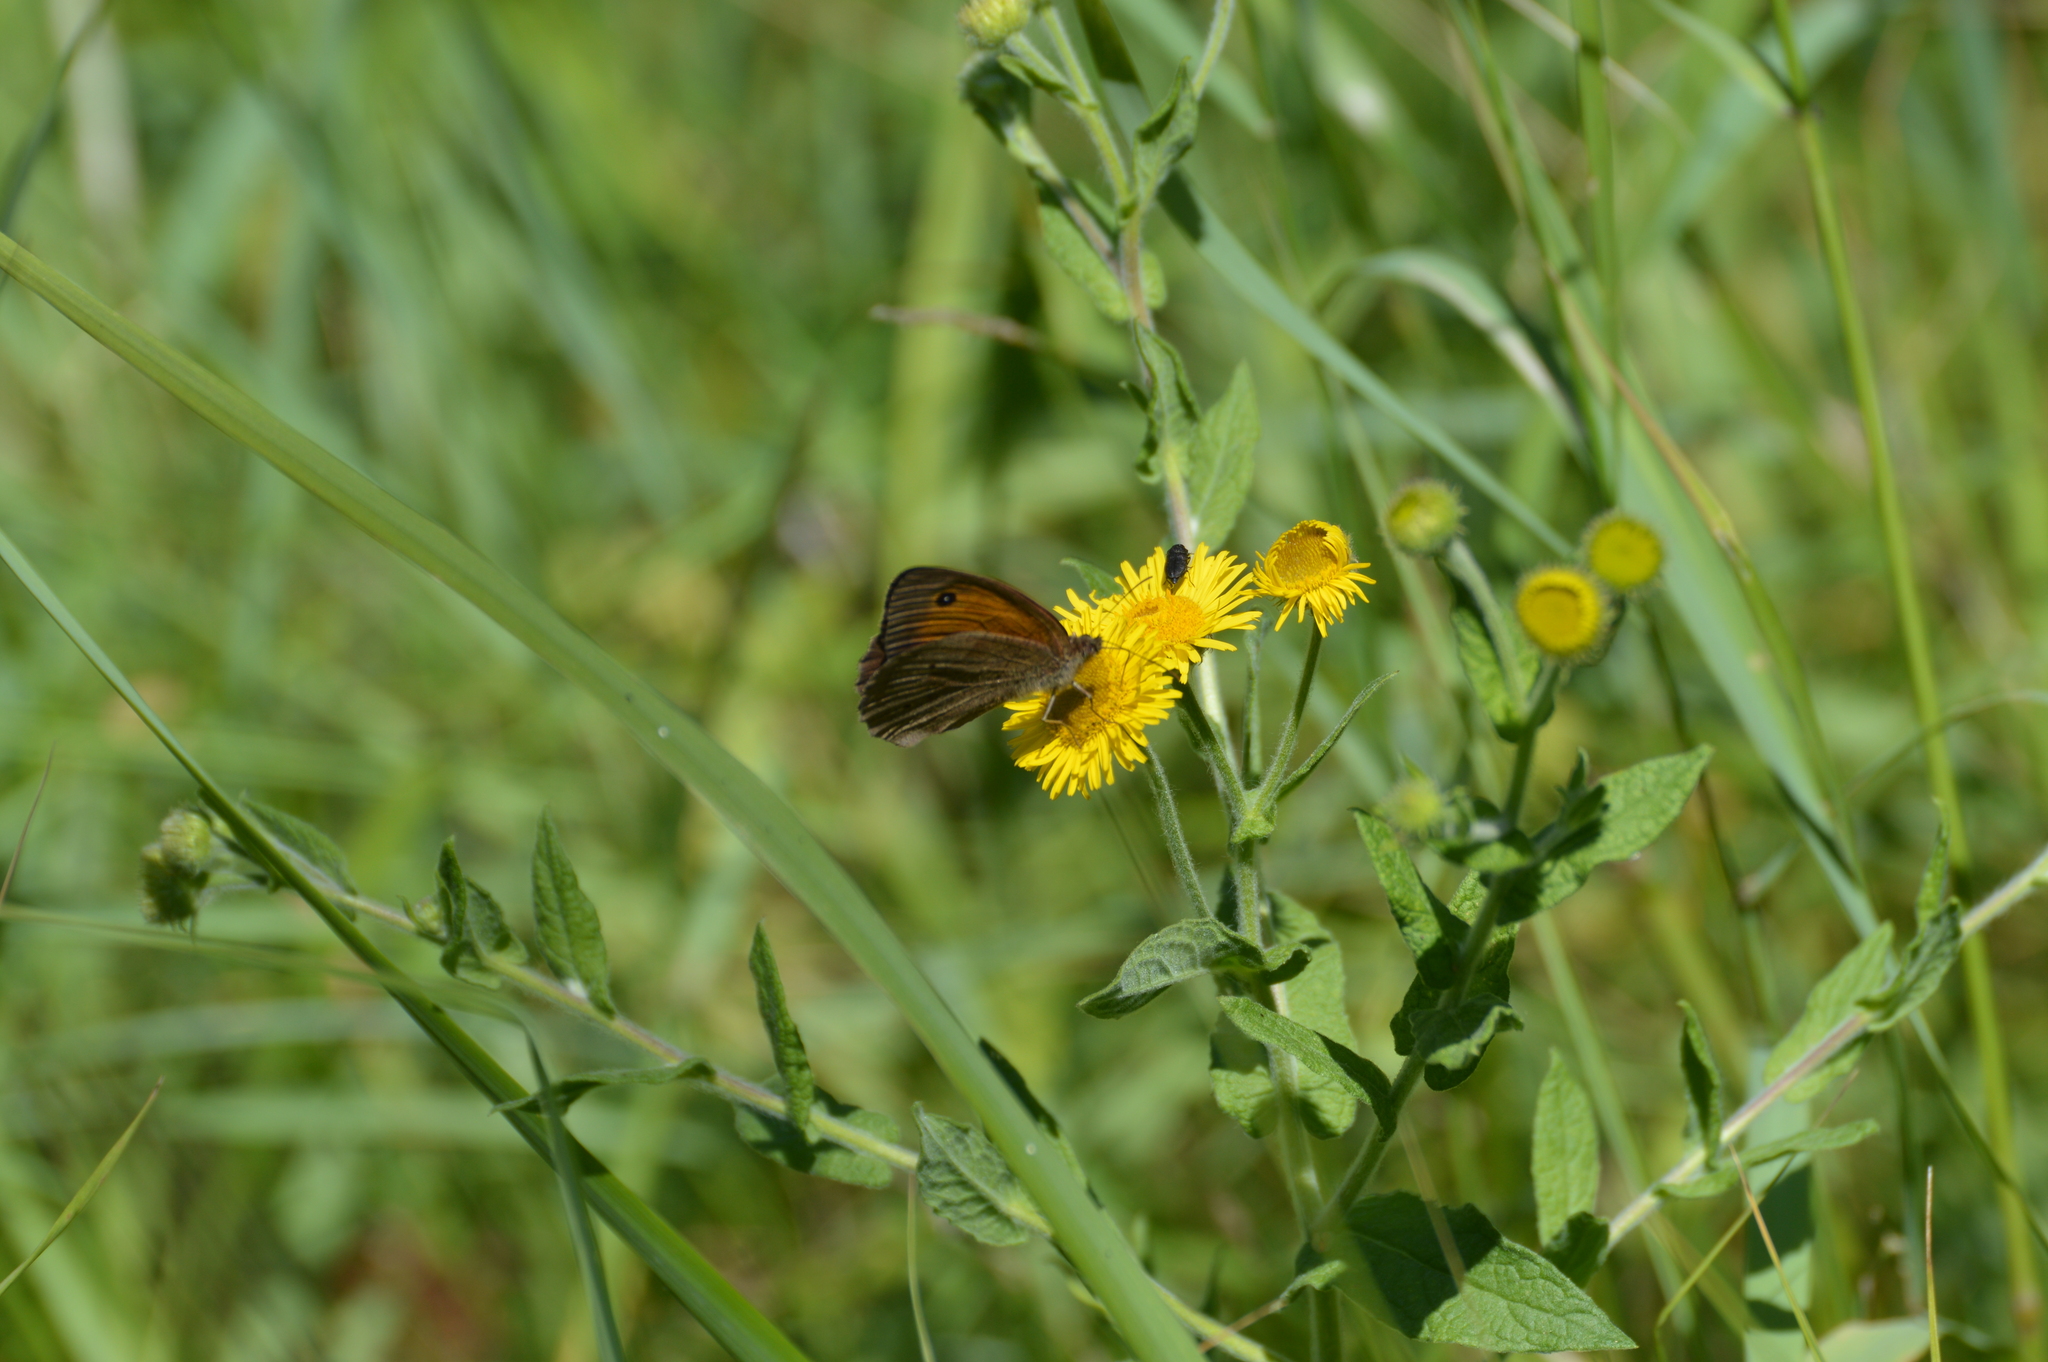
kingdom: Animalia
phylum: Arthropoda
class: Insecta
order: Lepidoptera
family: Nymphalidae
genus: Maniola
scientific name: Maniola jurtina
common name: Meadow brown
